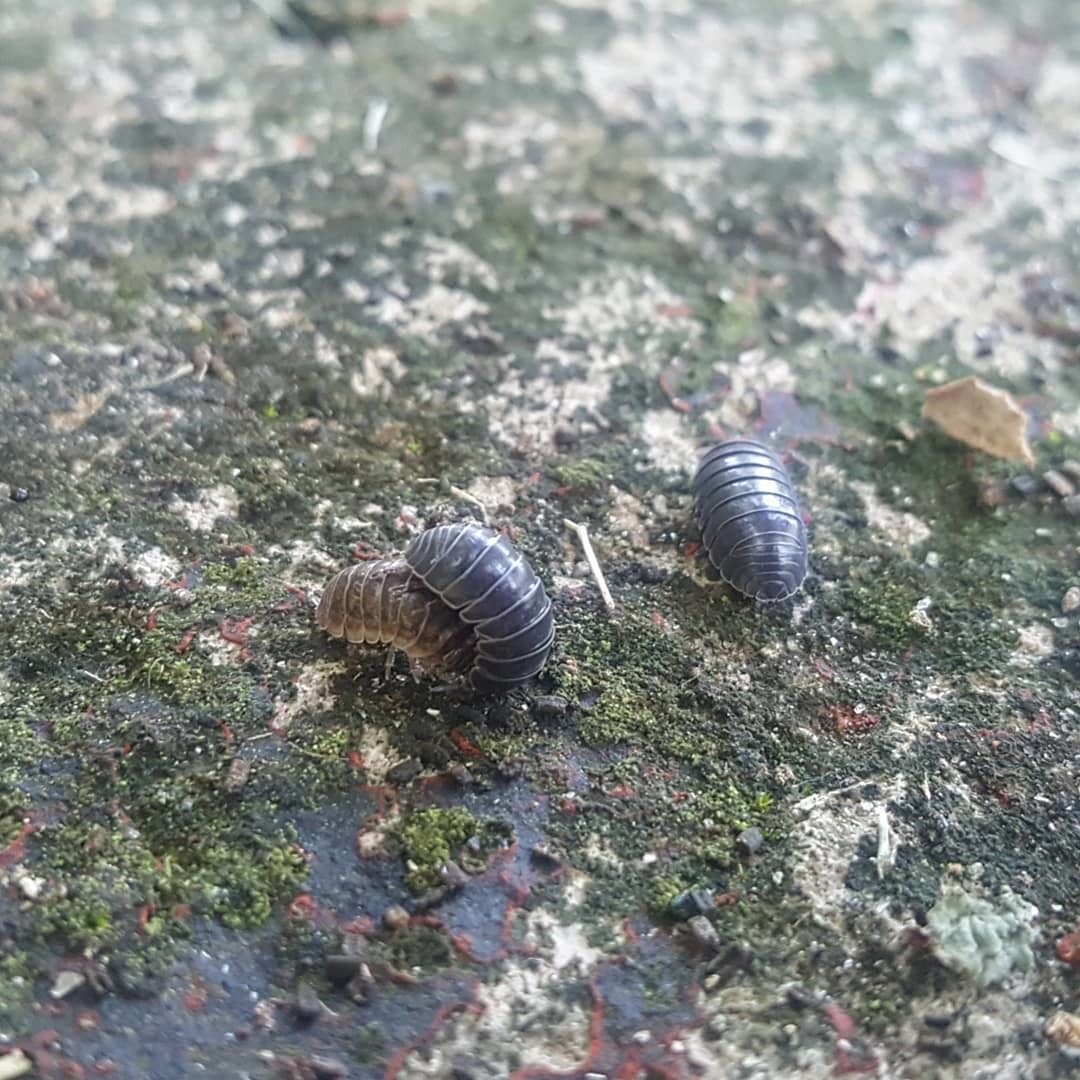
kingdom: Animalia
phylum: Arthropoda
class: Malacostraca
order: Isopoda
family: Armadillidiidae
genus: Armadillidium
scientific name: Armadillidium vulgare
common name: Common pill woodlouse
